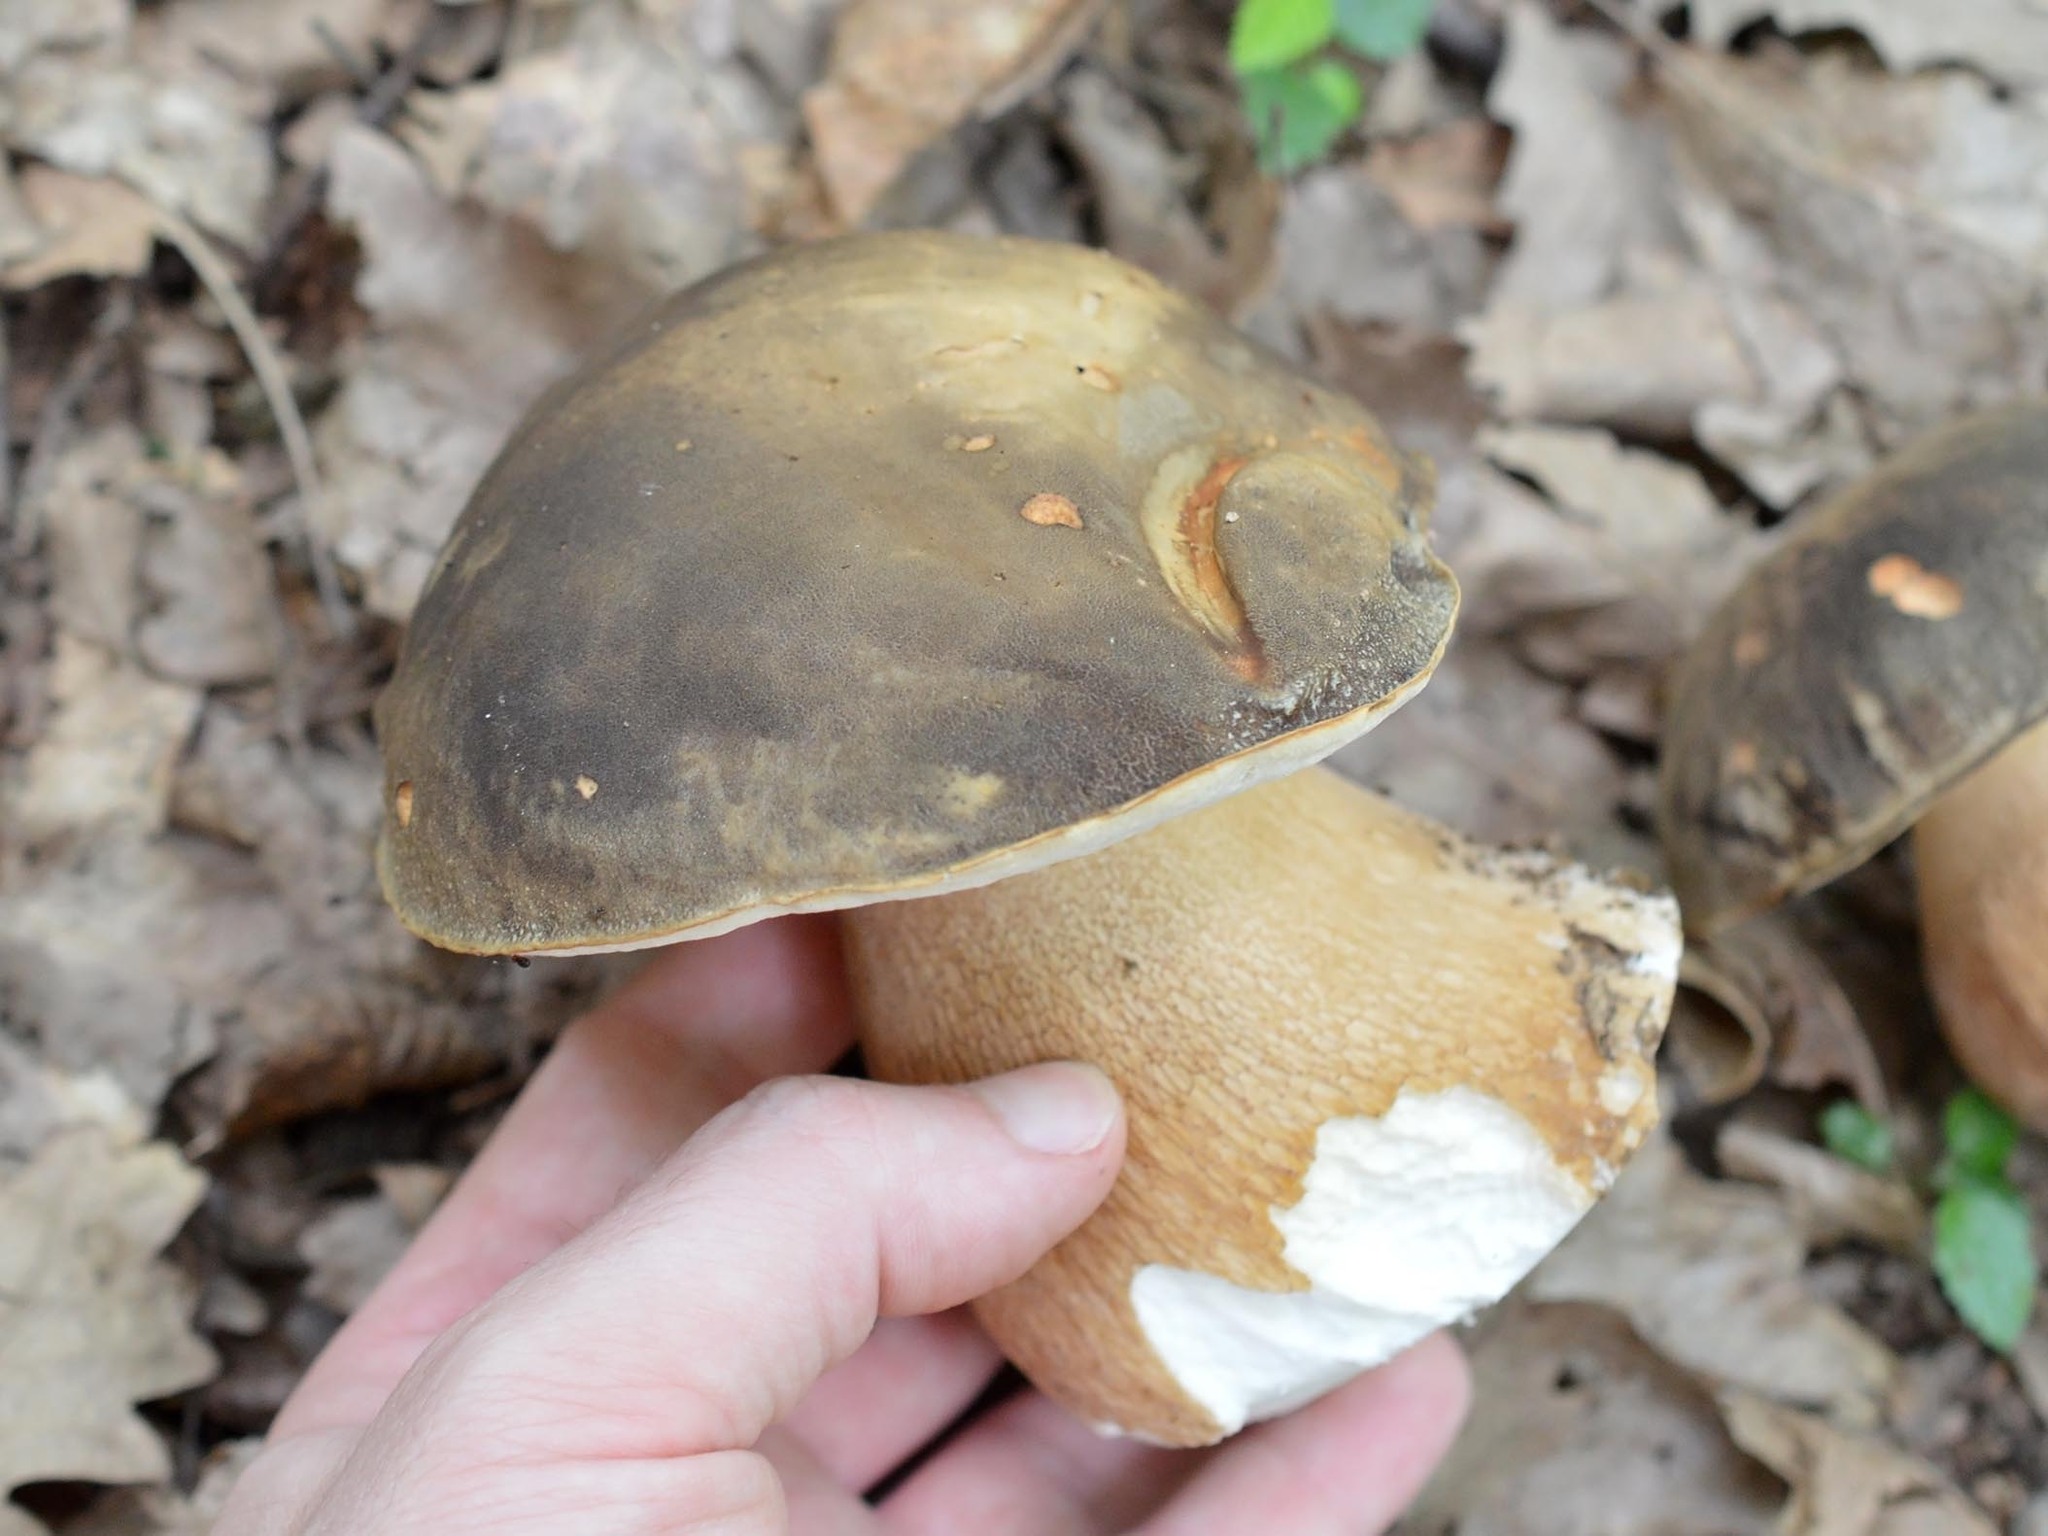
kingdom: Fungi
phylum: Basidiomycota
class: Agaricomycetes
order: Boletales
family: Boletaceae
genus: Boletus
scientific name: Boletus aereus
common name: Bronze bolete
